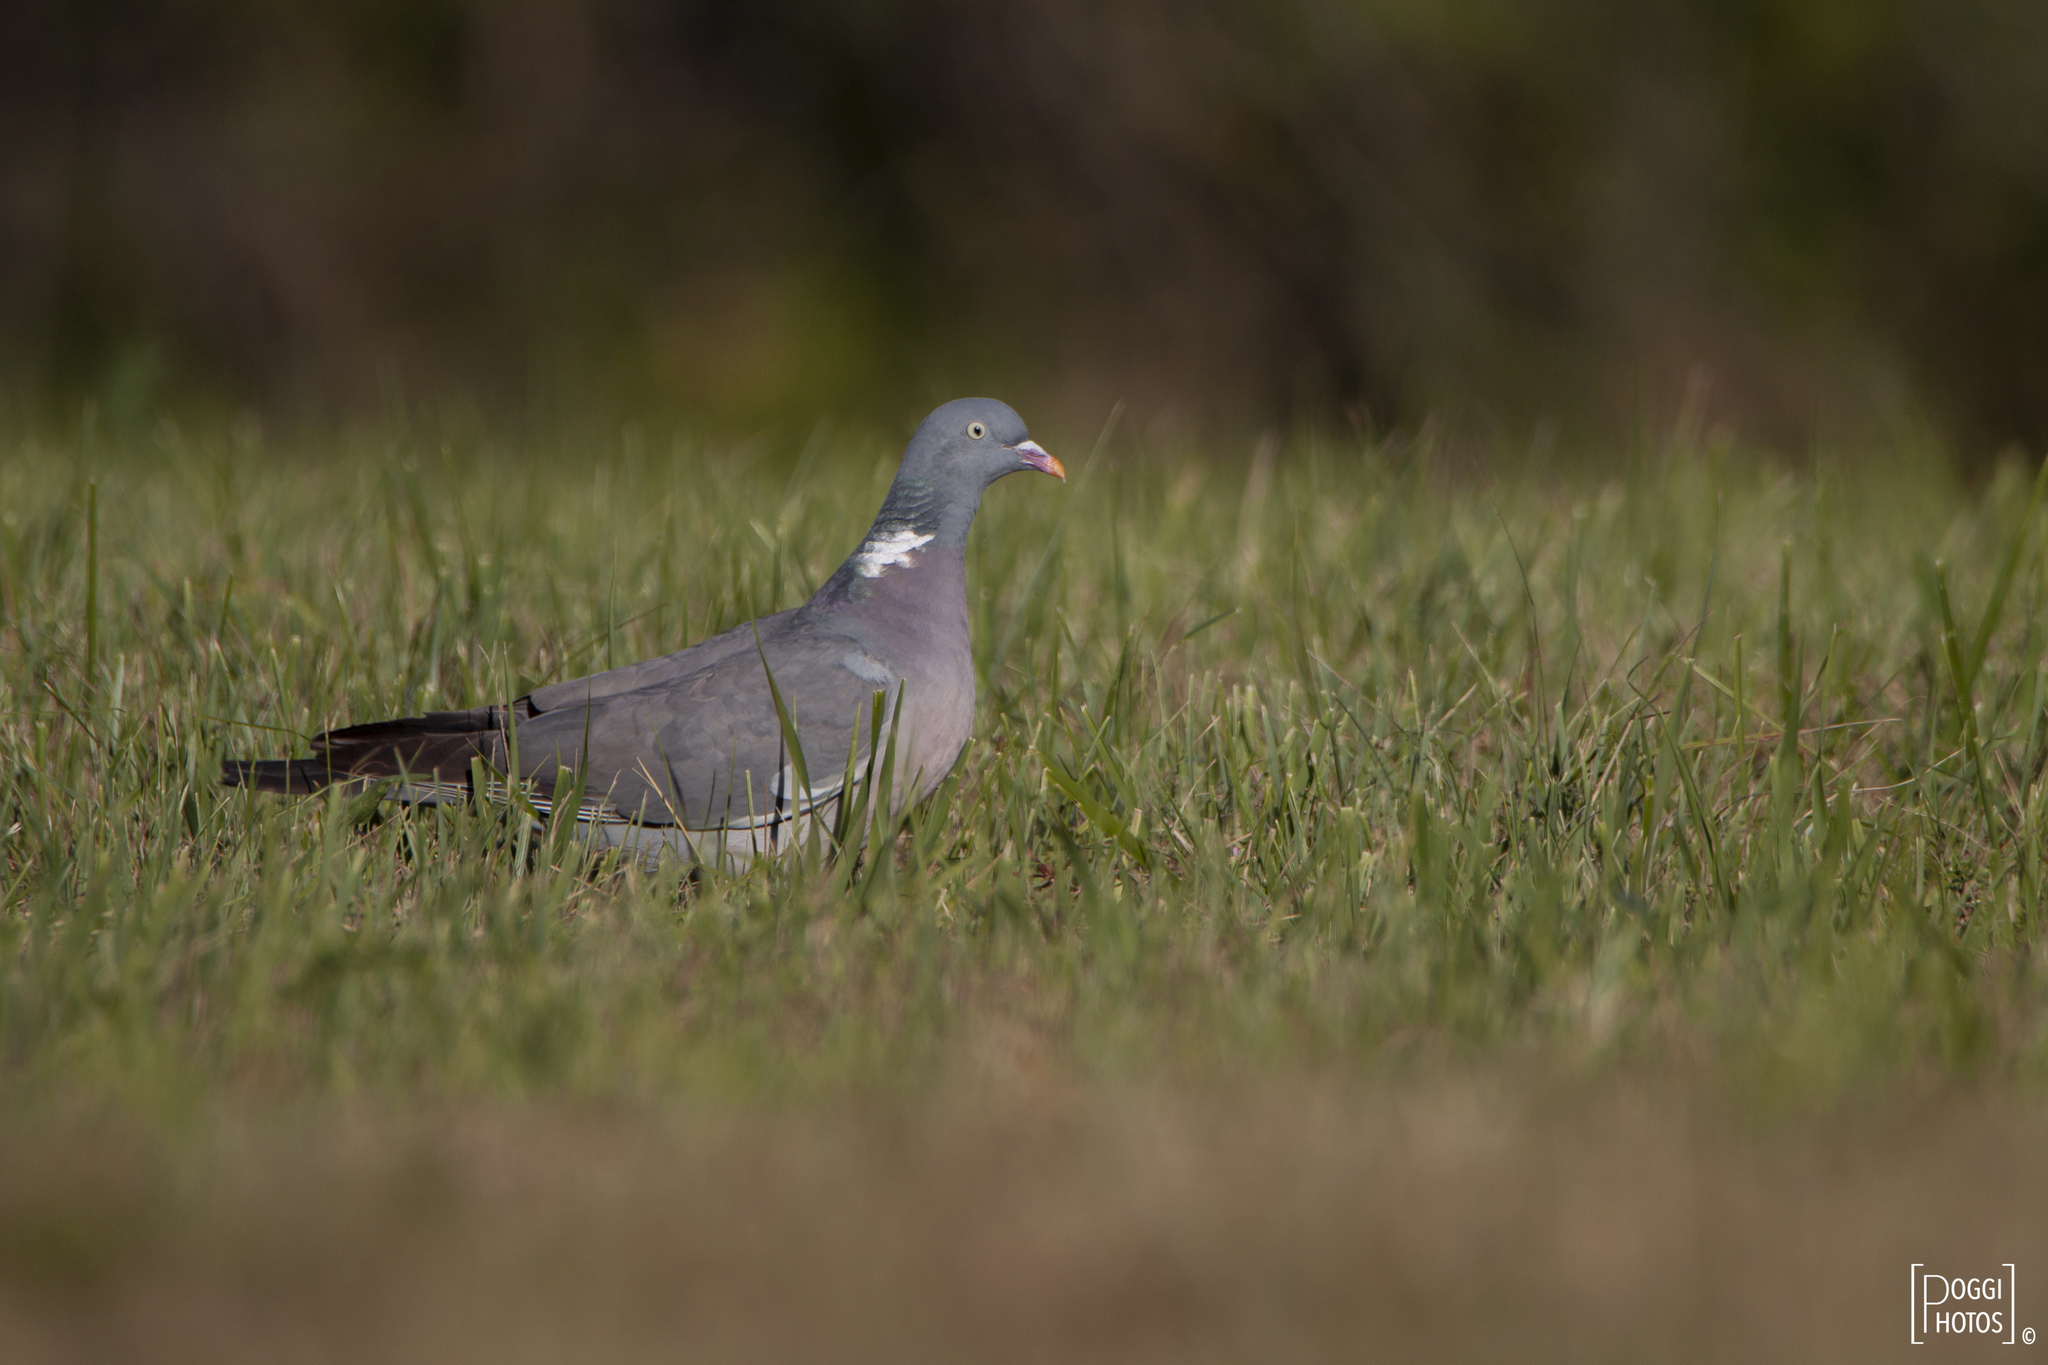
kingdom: Animalia
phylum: Chordata
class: Aves
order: Columbiformes
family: Columbidae
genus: Columba
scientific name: Columba palumbus
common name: Common wood pigeon
